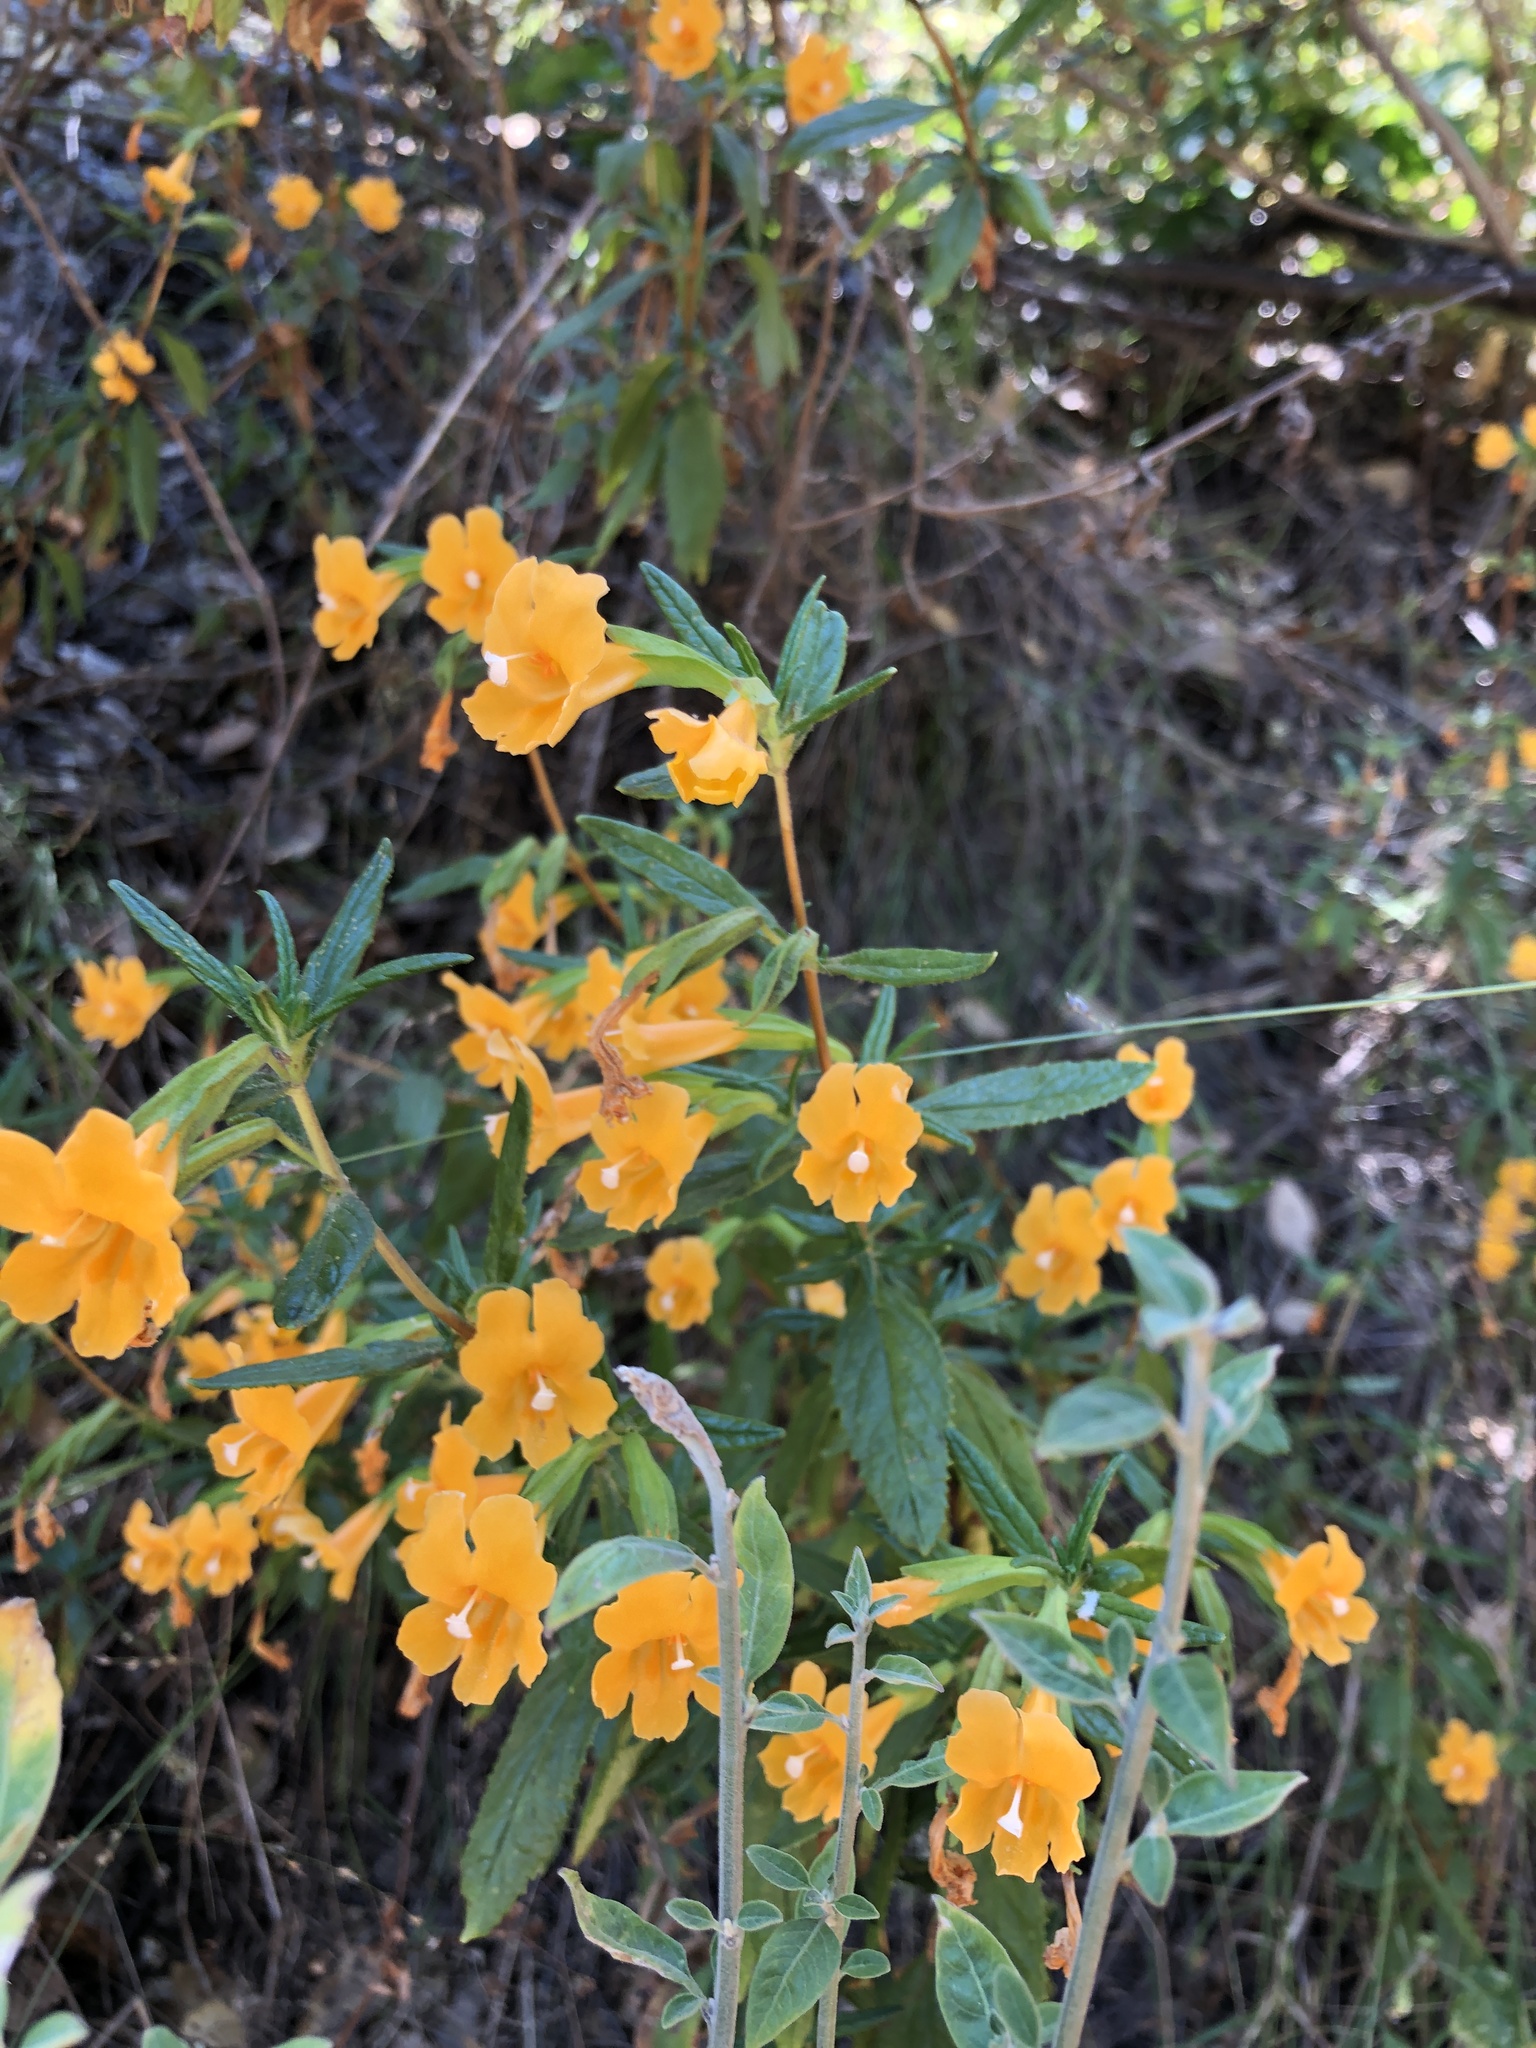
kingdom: Plantae
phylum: Tracheophyta
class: Magnoliopsida
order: Lamiales
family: Phrymaceae
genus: Diplacus
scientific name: Diplacus aurantiacus
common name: Bush monkey-flower
